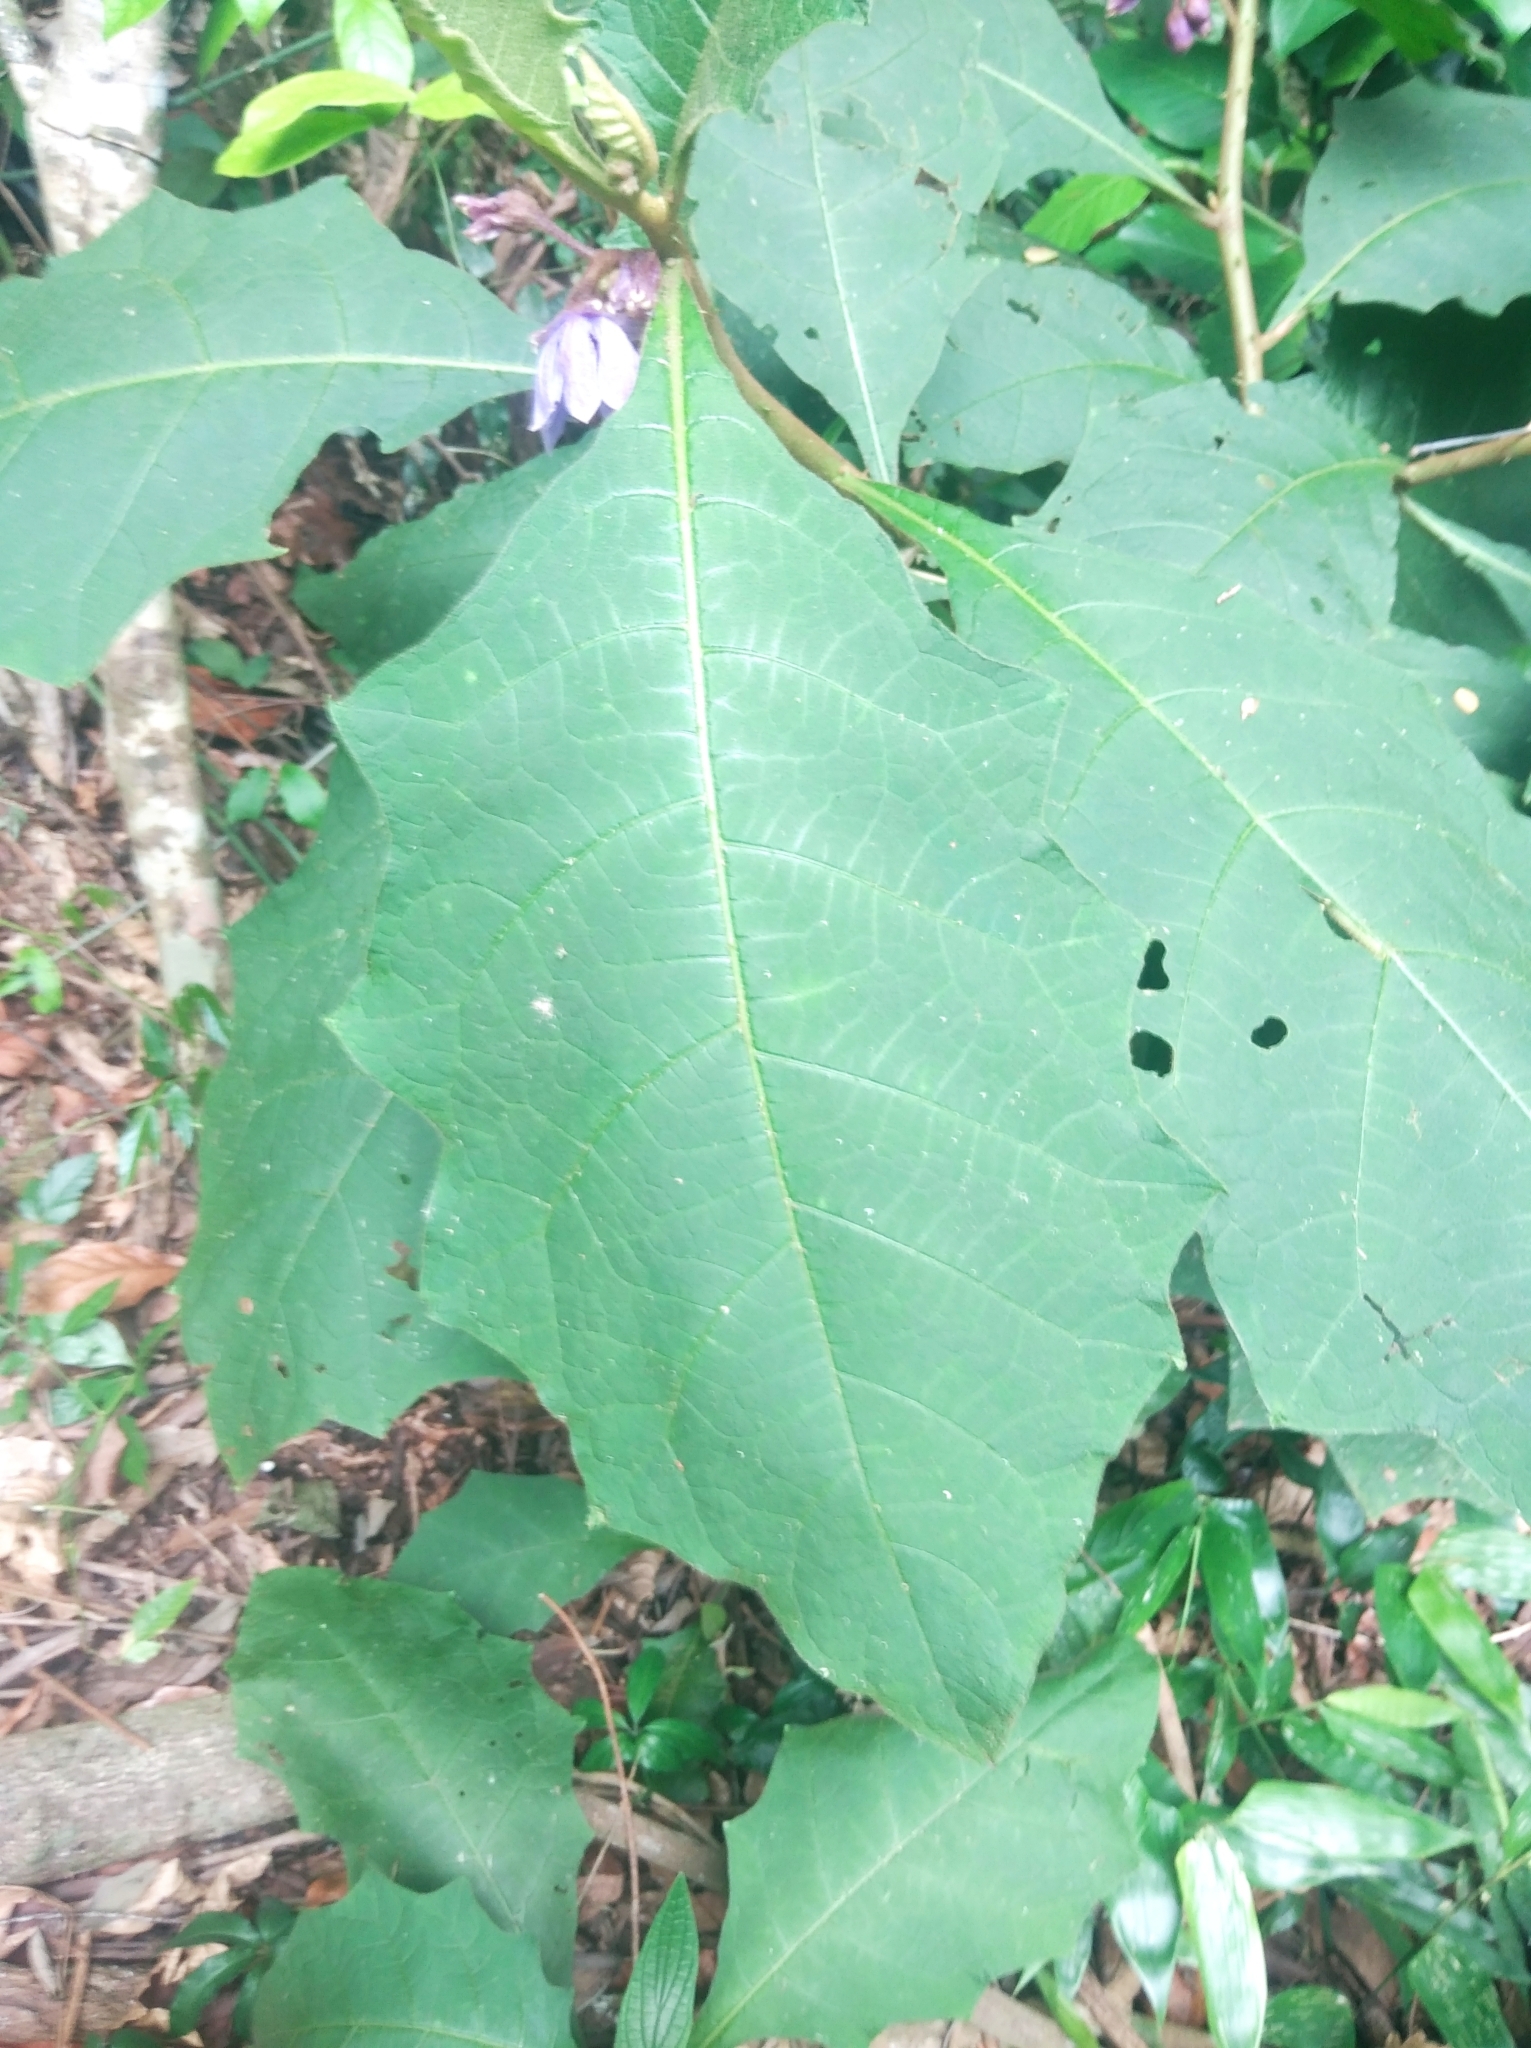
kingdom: Plantae
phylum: Tracheophyta
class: Magnoliopsida
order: Solanales
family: Solanaceae
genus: Solanum
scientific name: Solanum hexandrum
